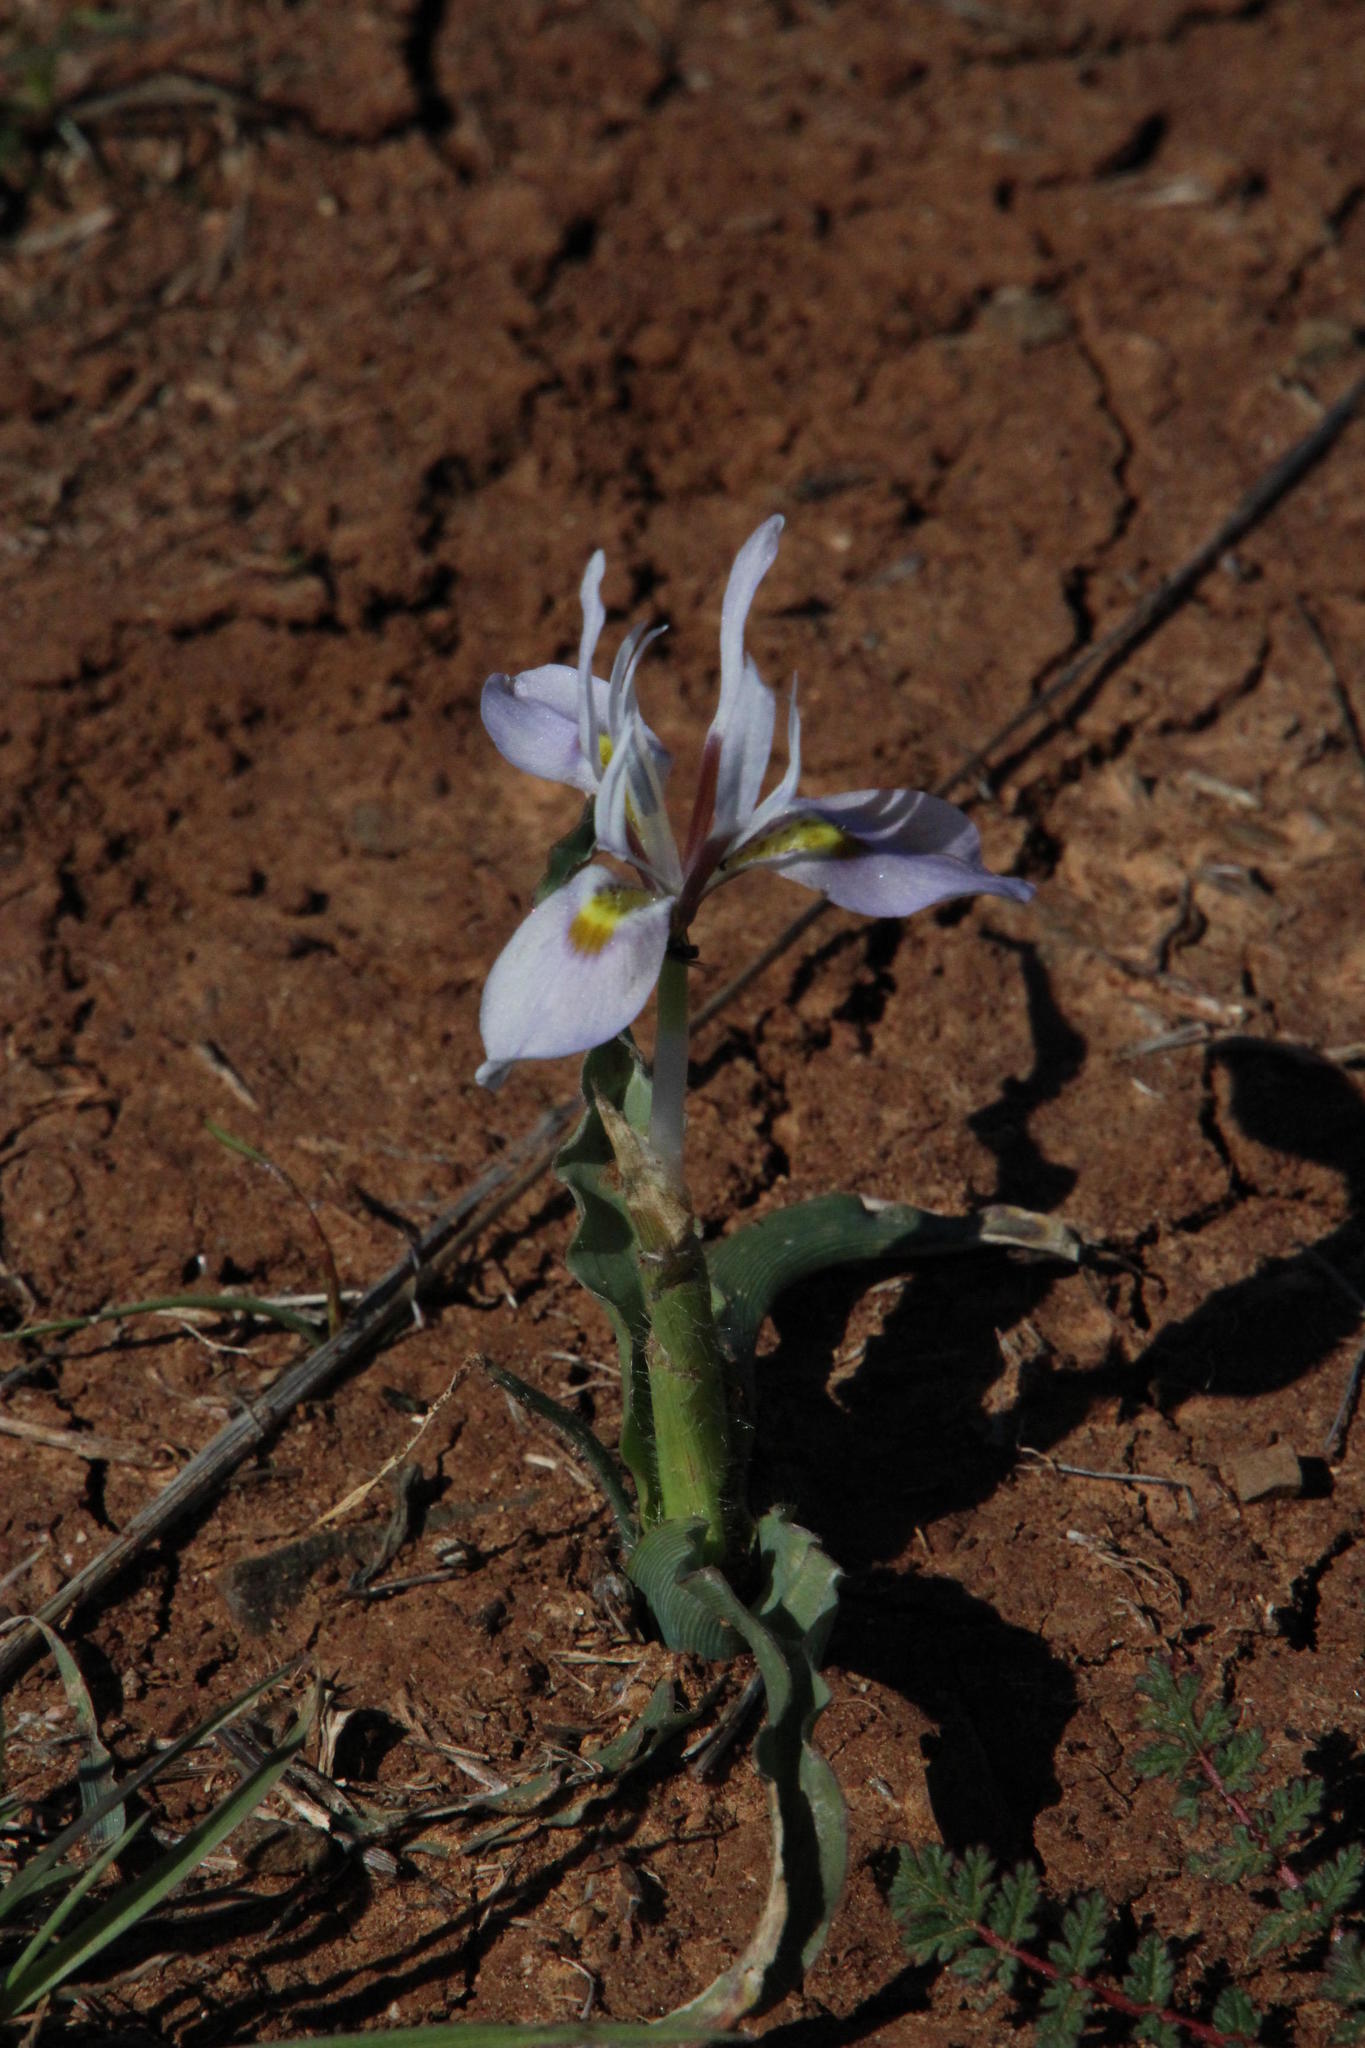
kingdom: Plantae
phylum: Tracheophyta
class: Liliopsida
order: Asparagales
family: Iridaceae
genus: Moraea
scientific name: Moraea ciliata
